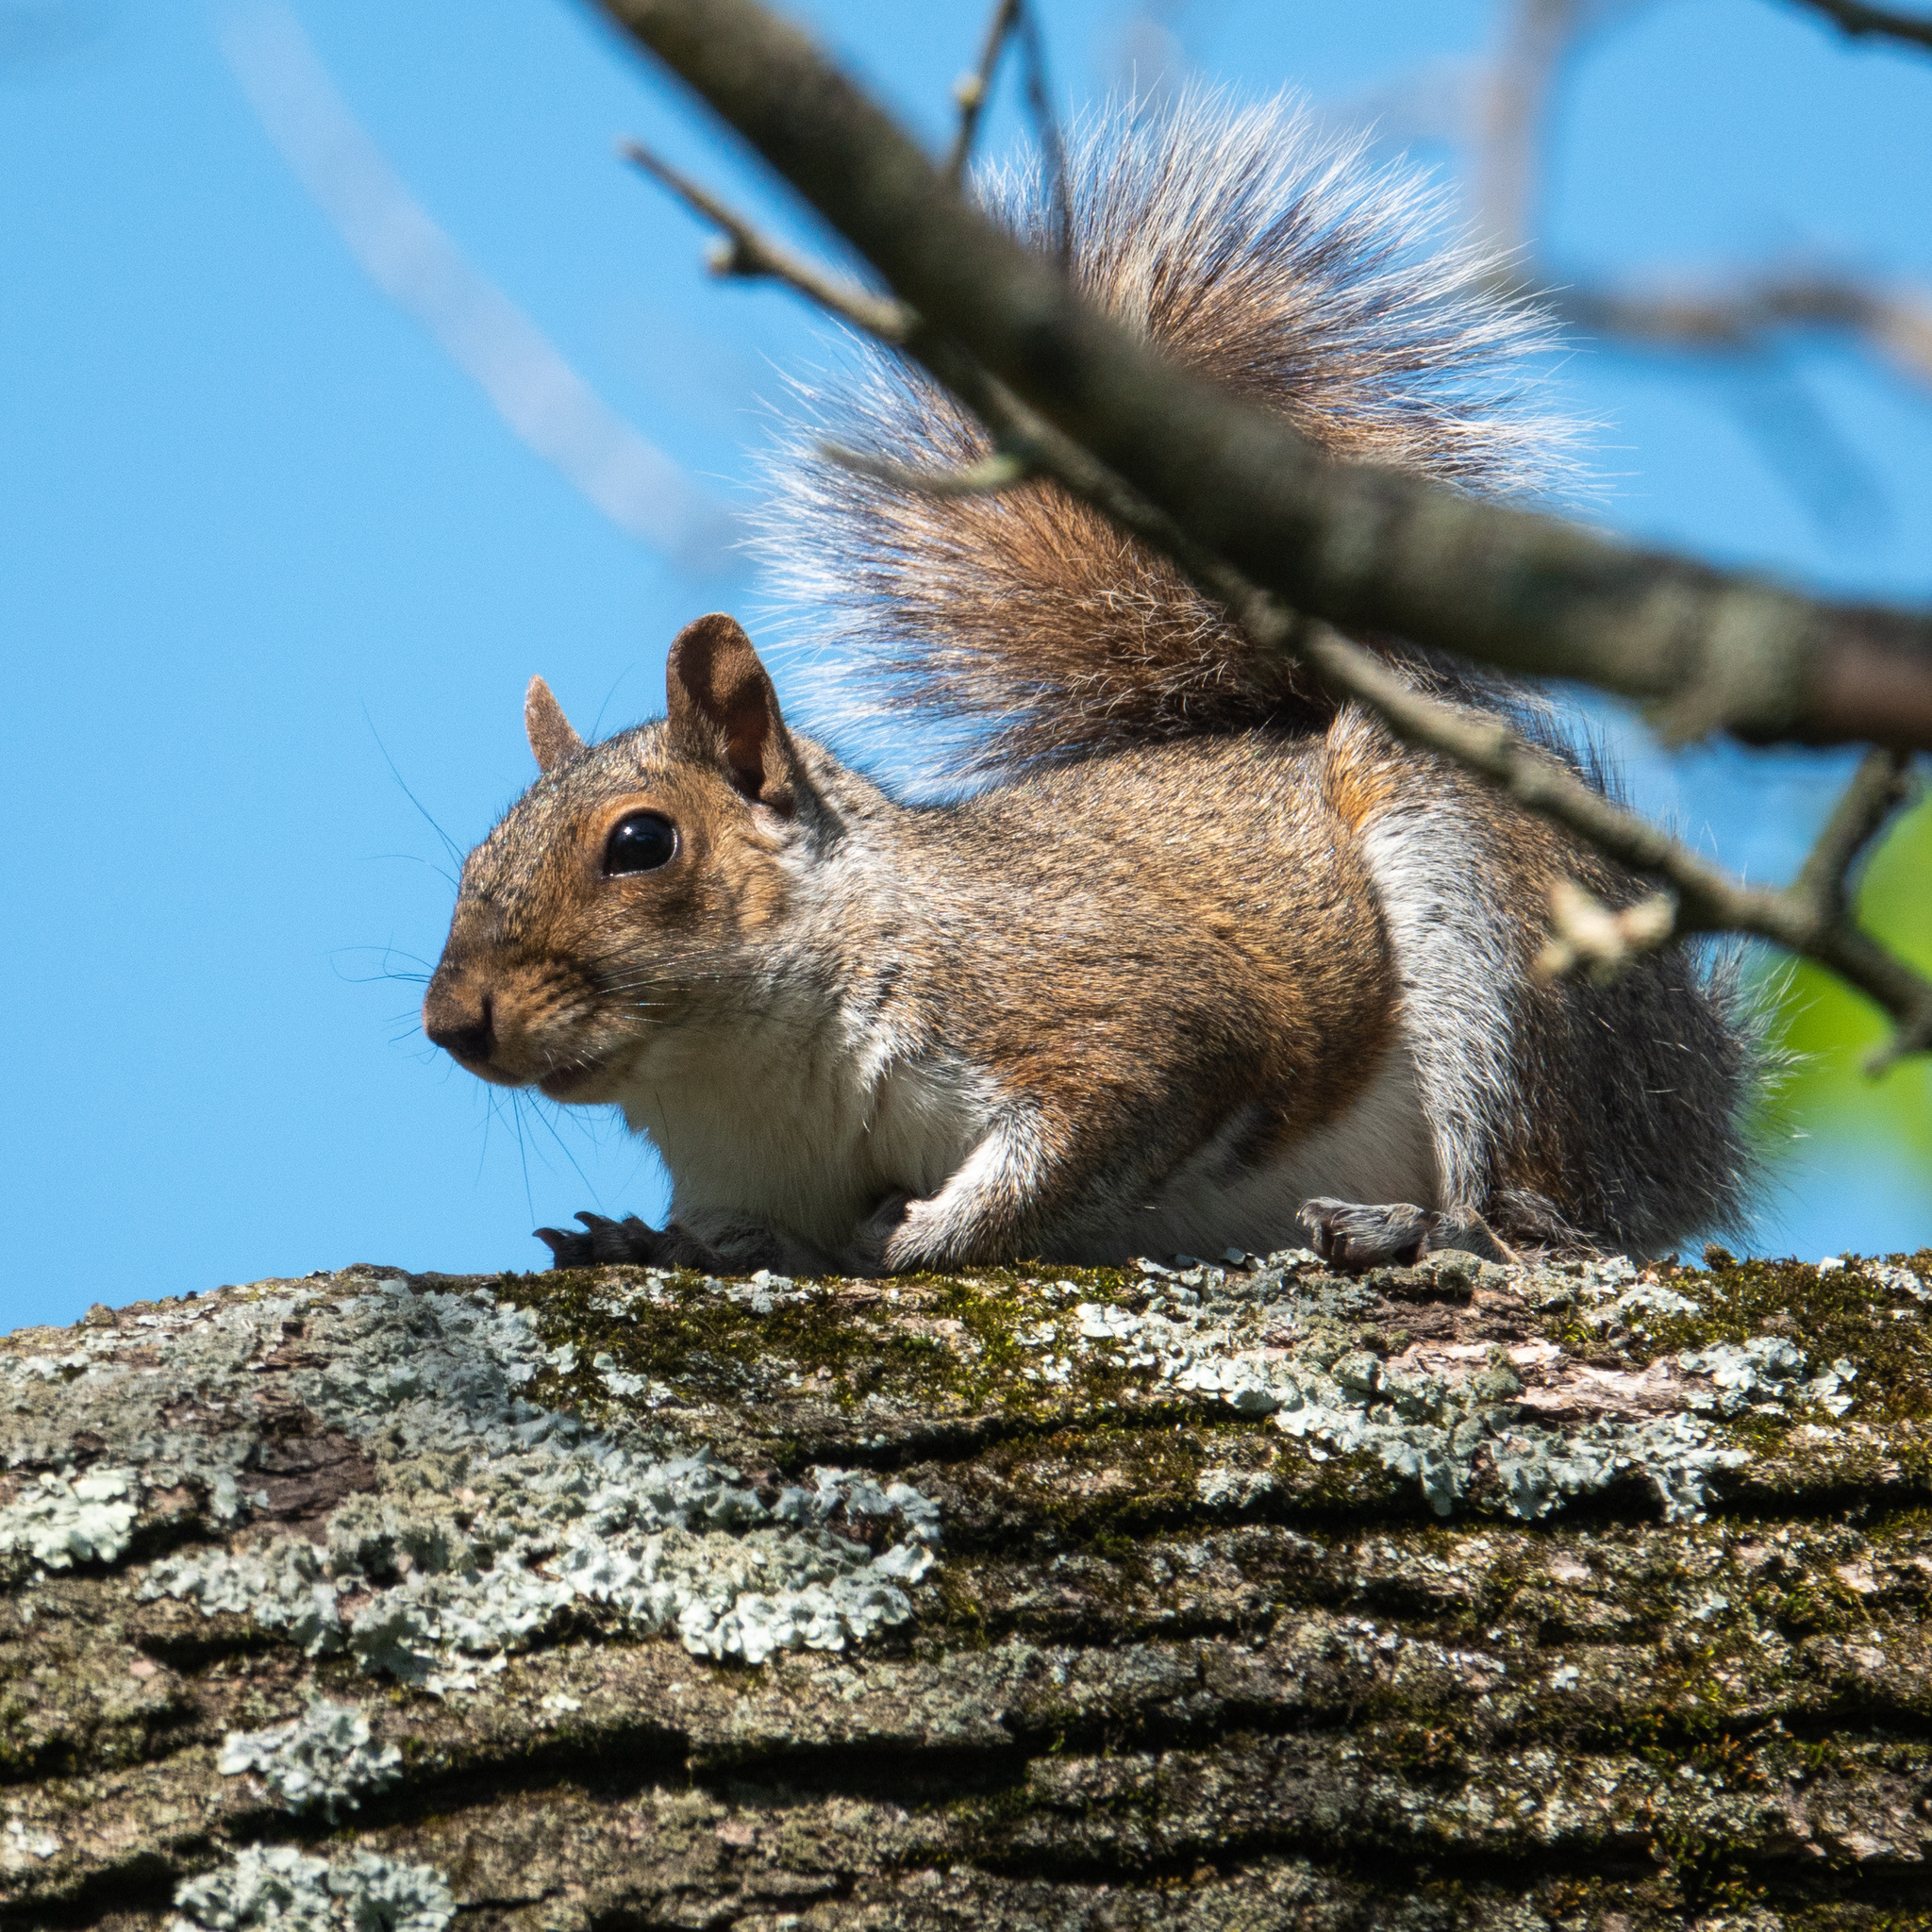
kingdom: Animalia
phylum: Chordata
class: Mammalia
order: Rodentia
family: Sciuridae
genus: Sciurus
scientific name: Sciurus carolinensis
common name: Eastern gray squirrel
